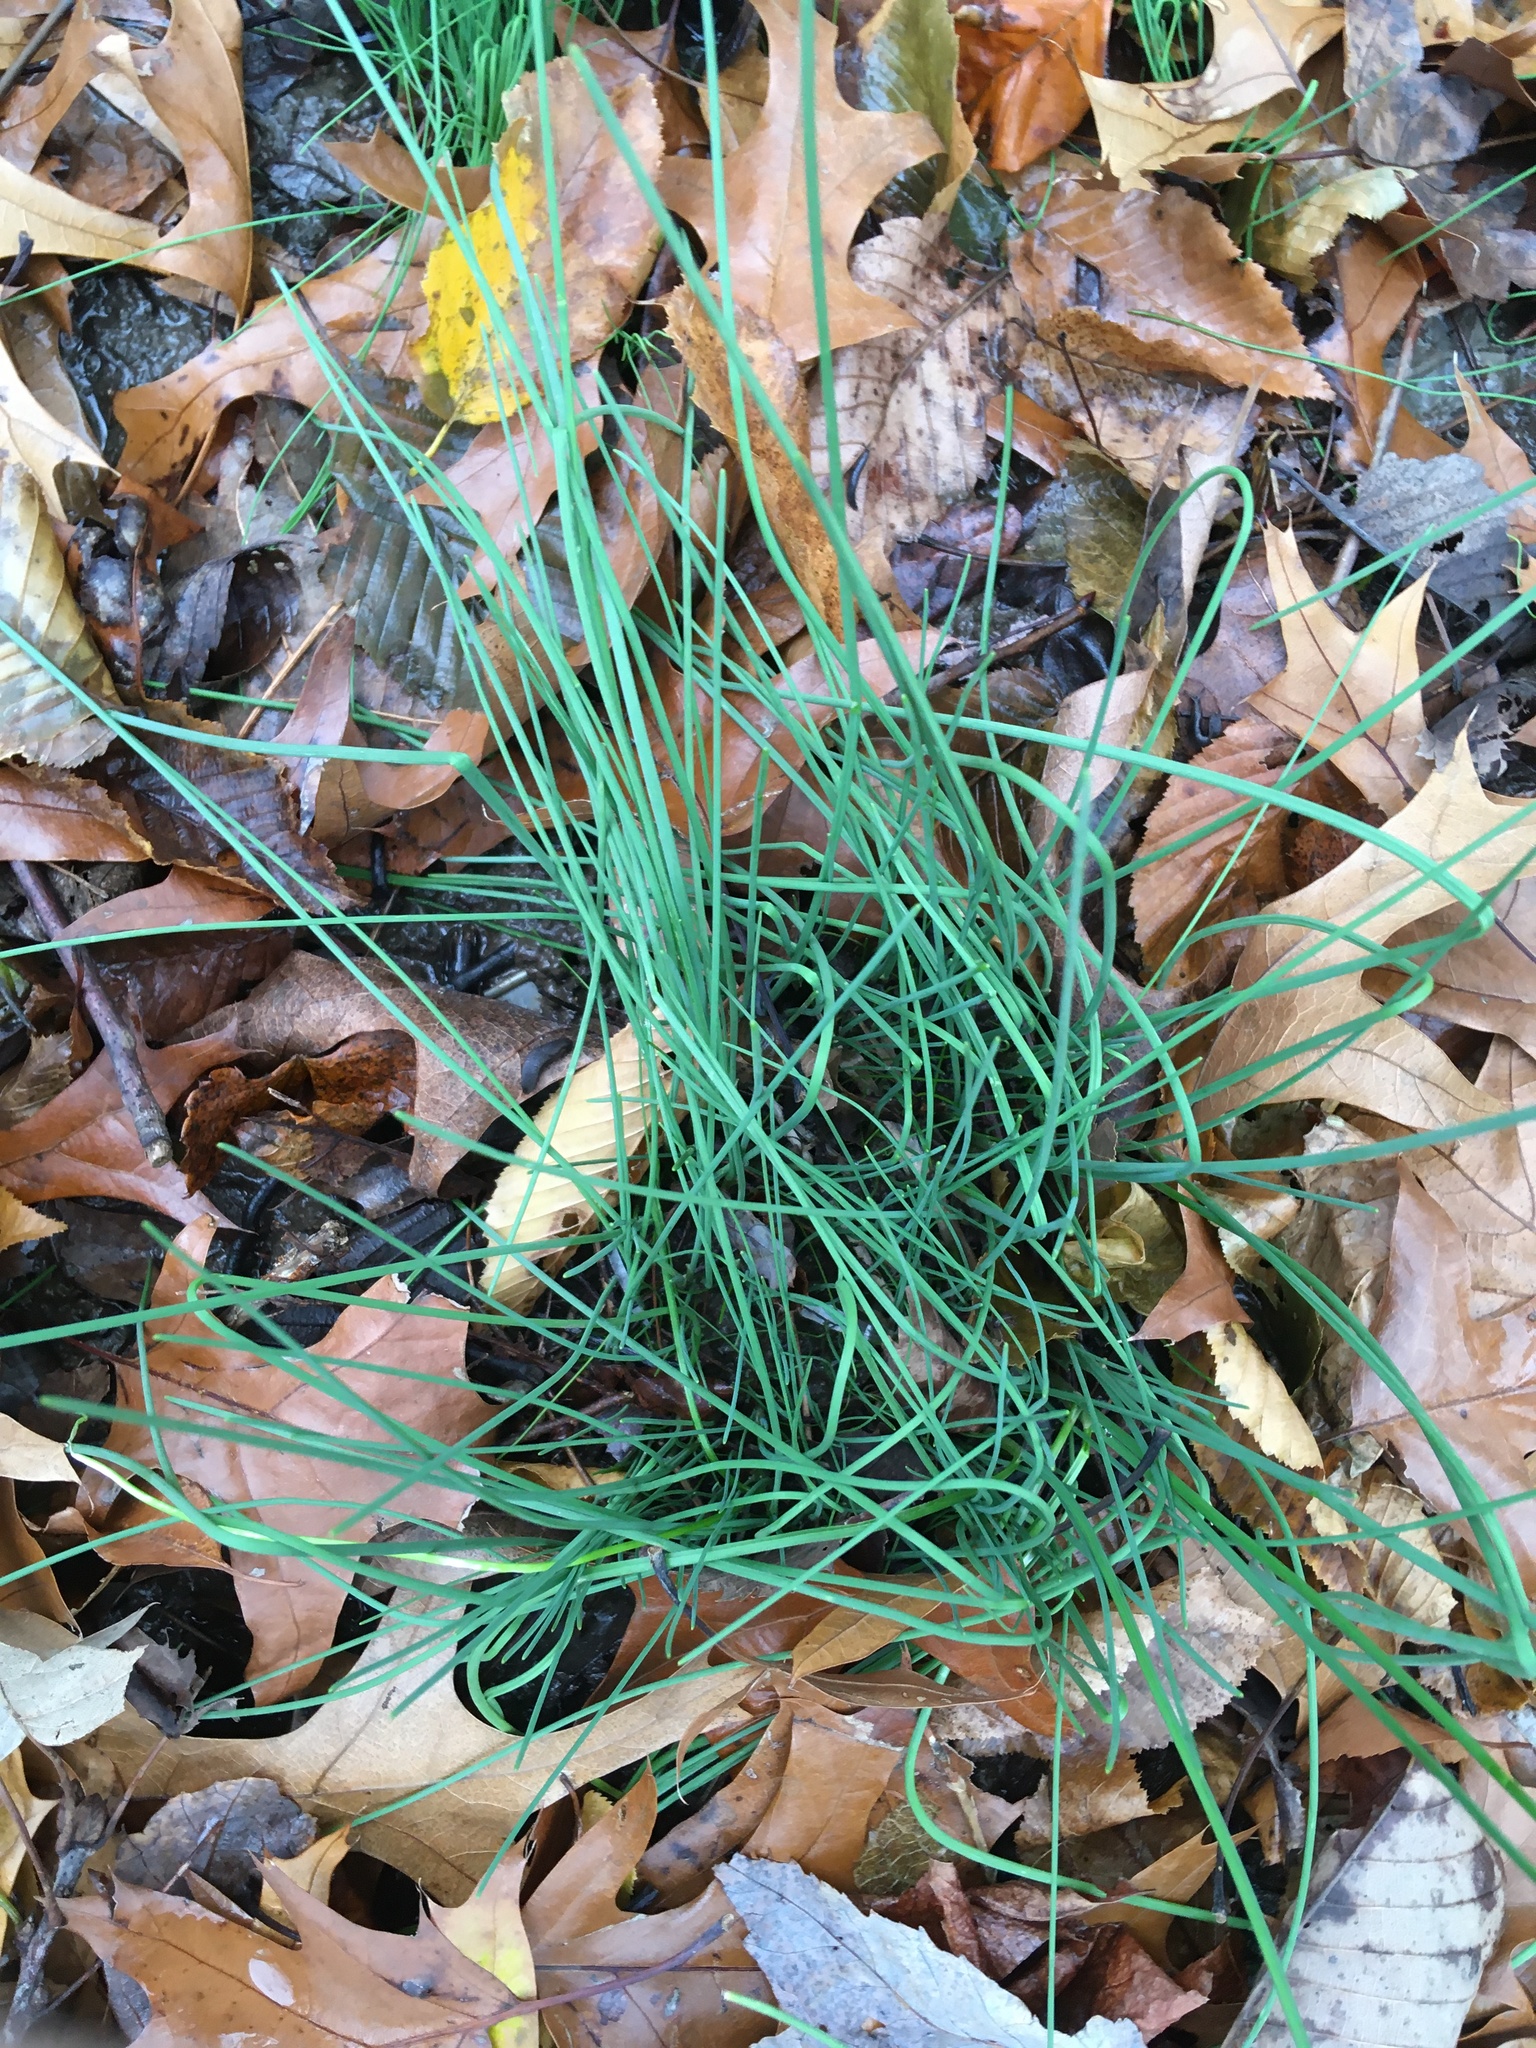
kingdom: Plantae
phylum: Tracheophyta
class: Liliopsida
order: Asparagales
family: Amaryllidaceae
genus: Allium
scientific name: Allium vineale
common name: Crow garlic
